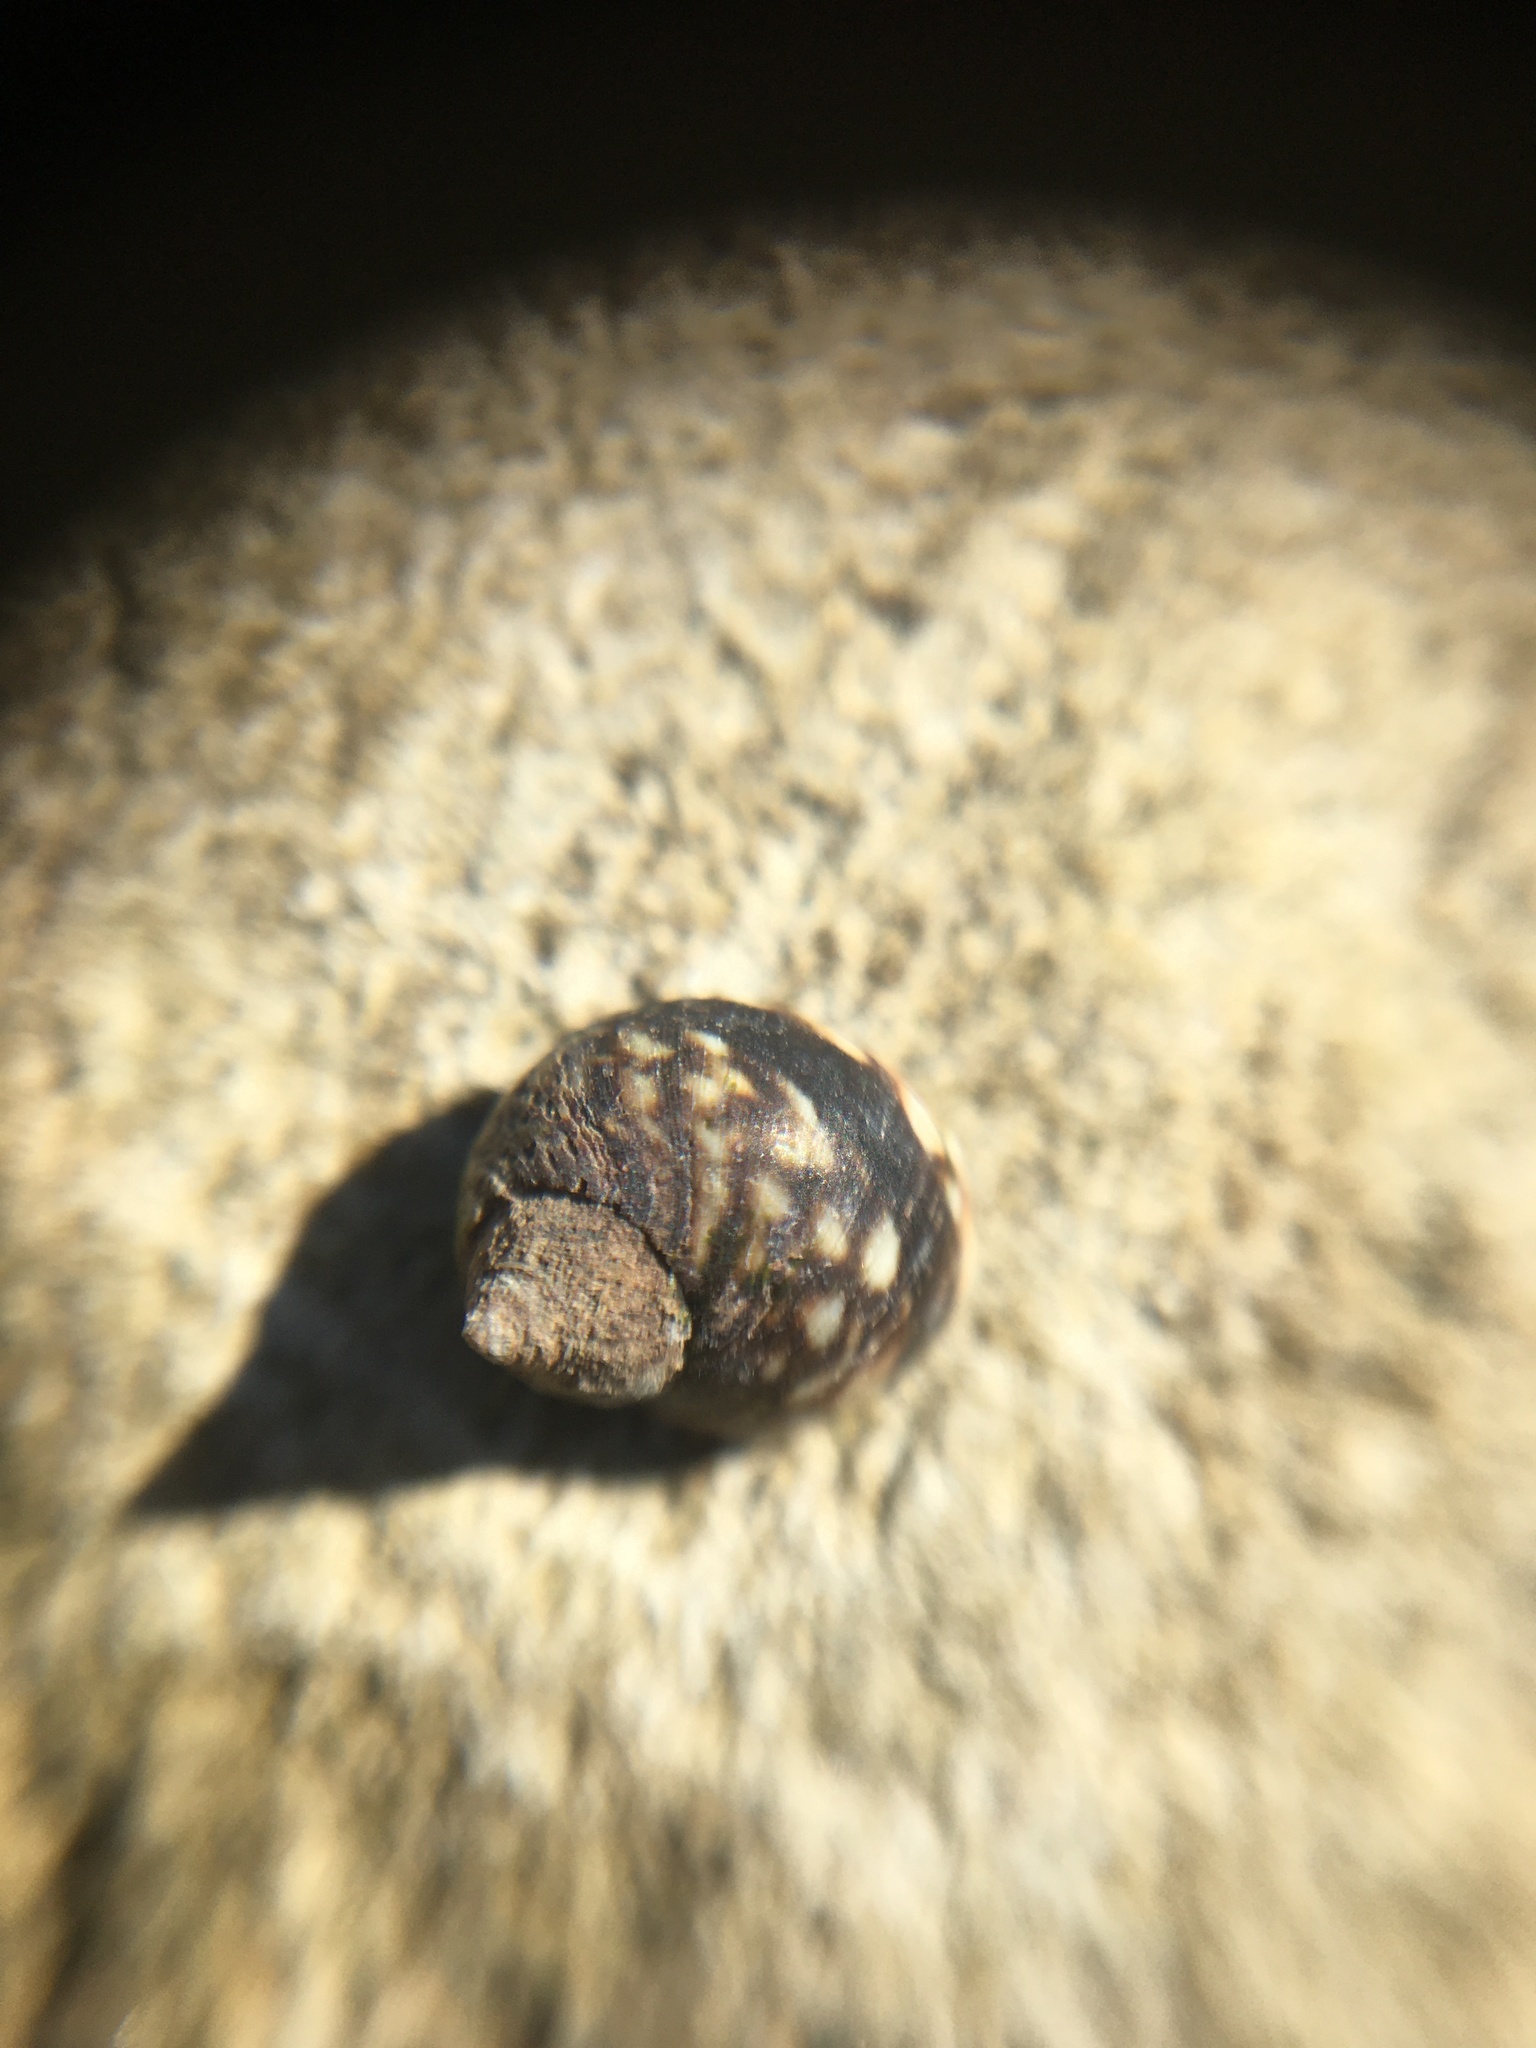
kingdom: Animalia
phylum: Mollusca
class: Gastropoda
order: Littorinimorpha
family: Littorinidae
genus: Littorina
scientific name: Littorina scutulata
